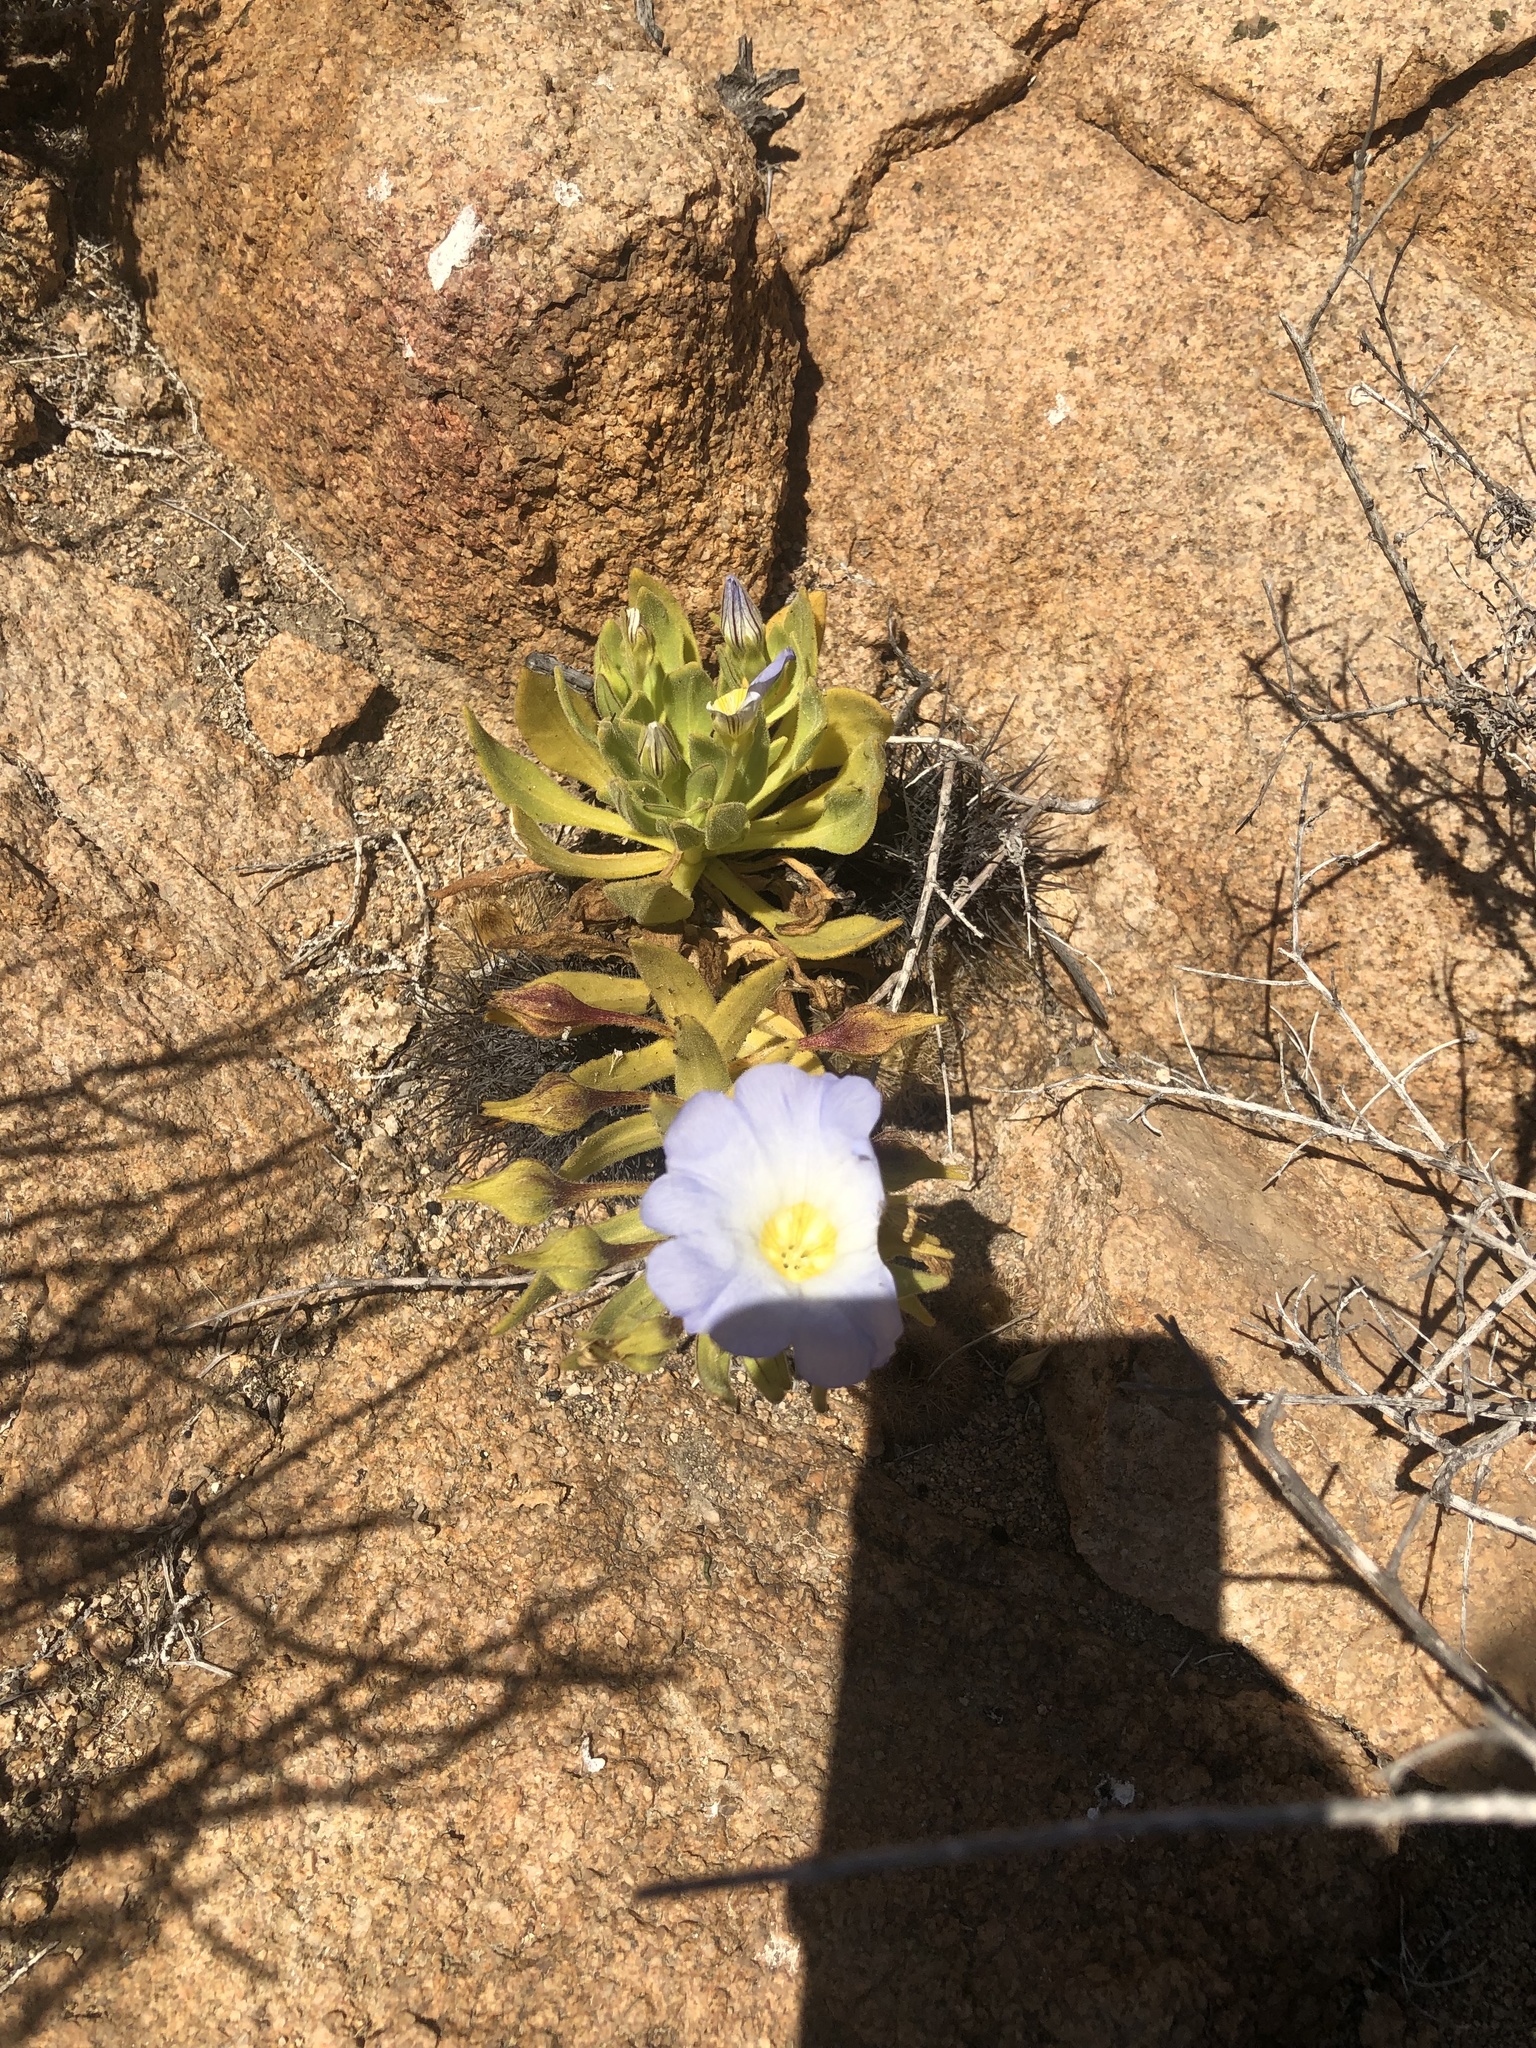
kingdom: Plantae
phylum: Tracheophyta
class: Magnoliopsida
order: Solanales
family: Solanaceae
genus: Nolana
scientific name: Nolana rupicola
